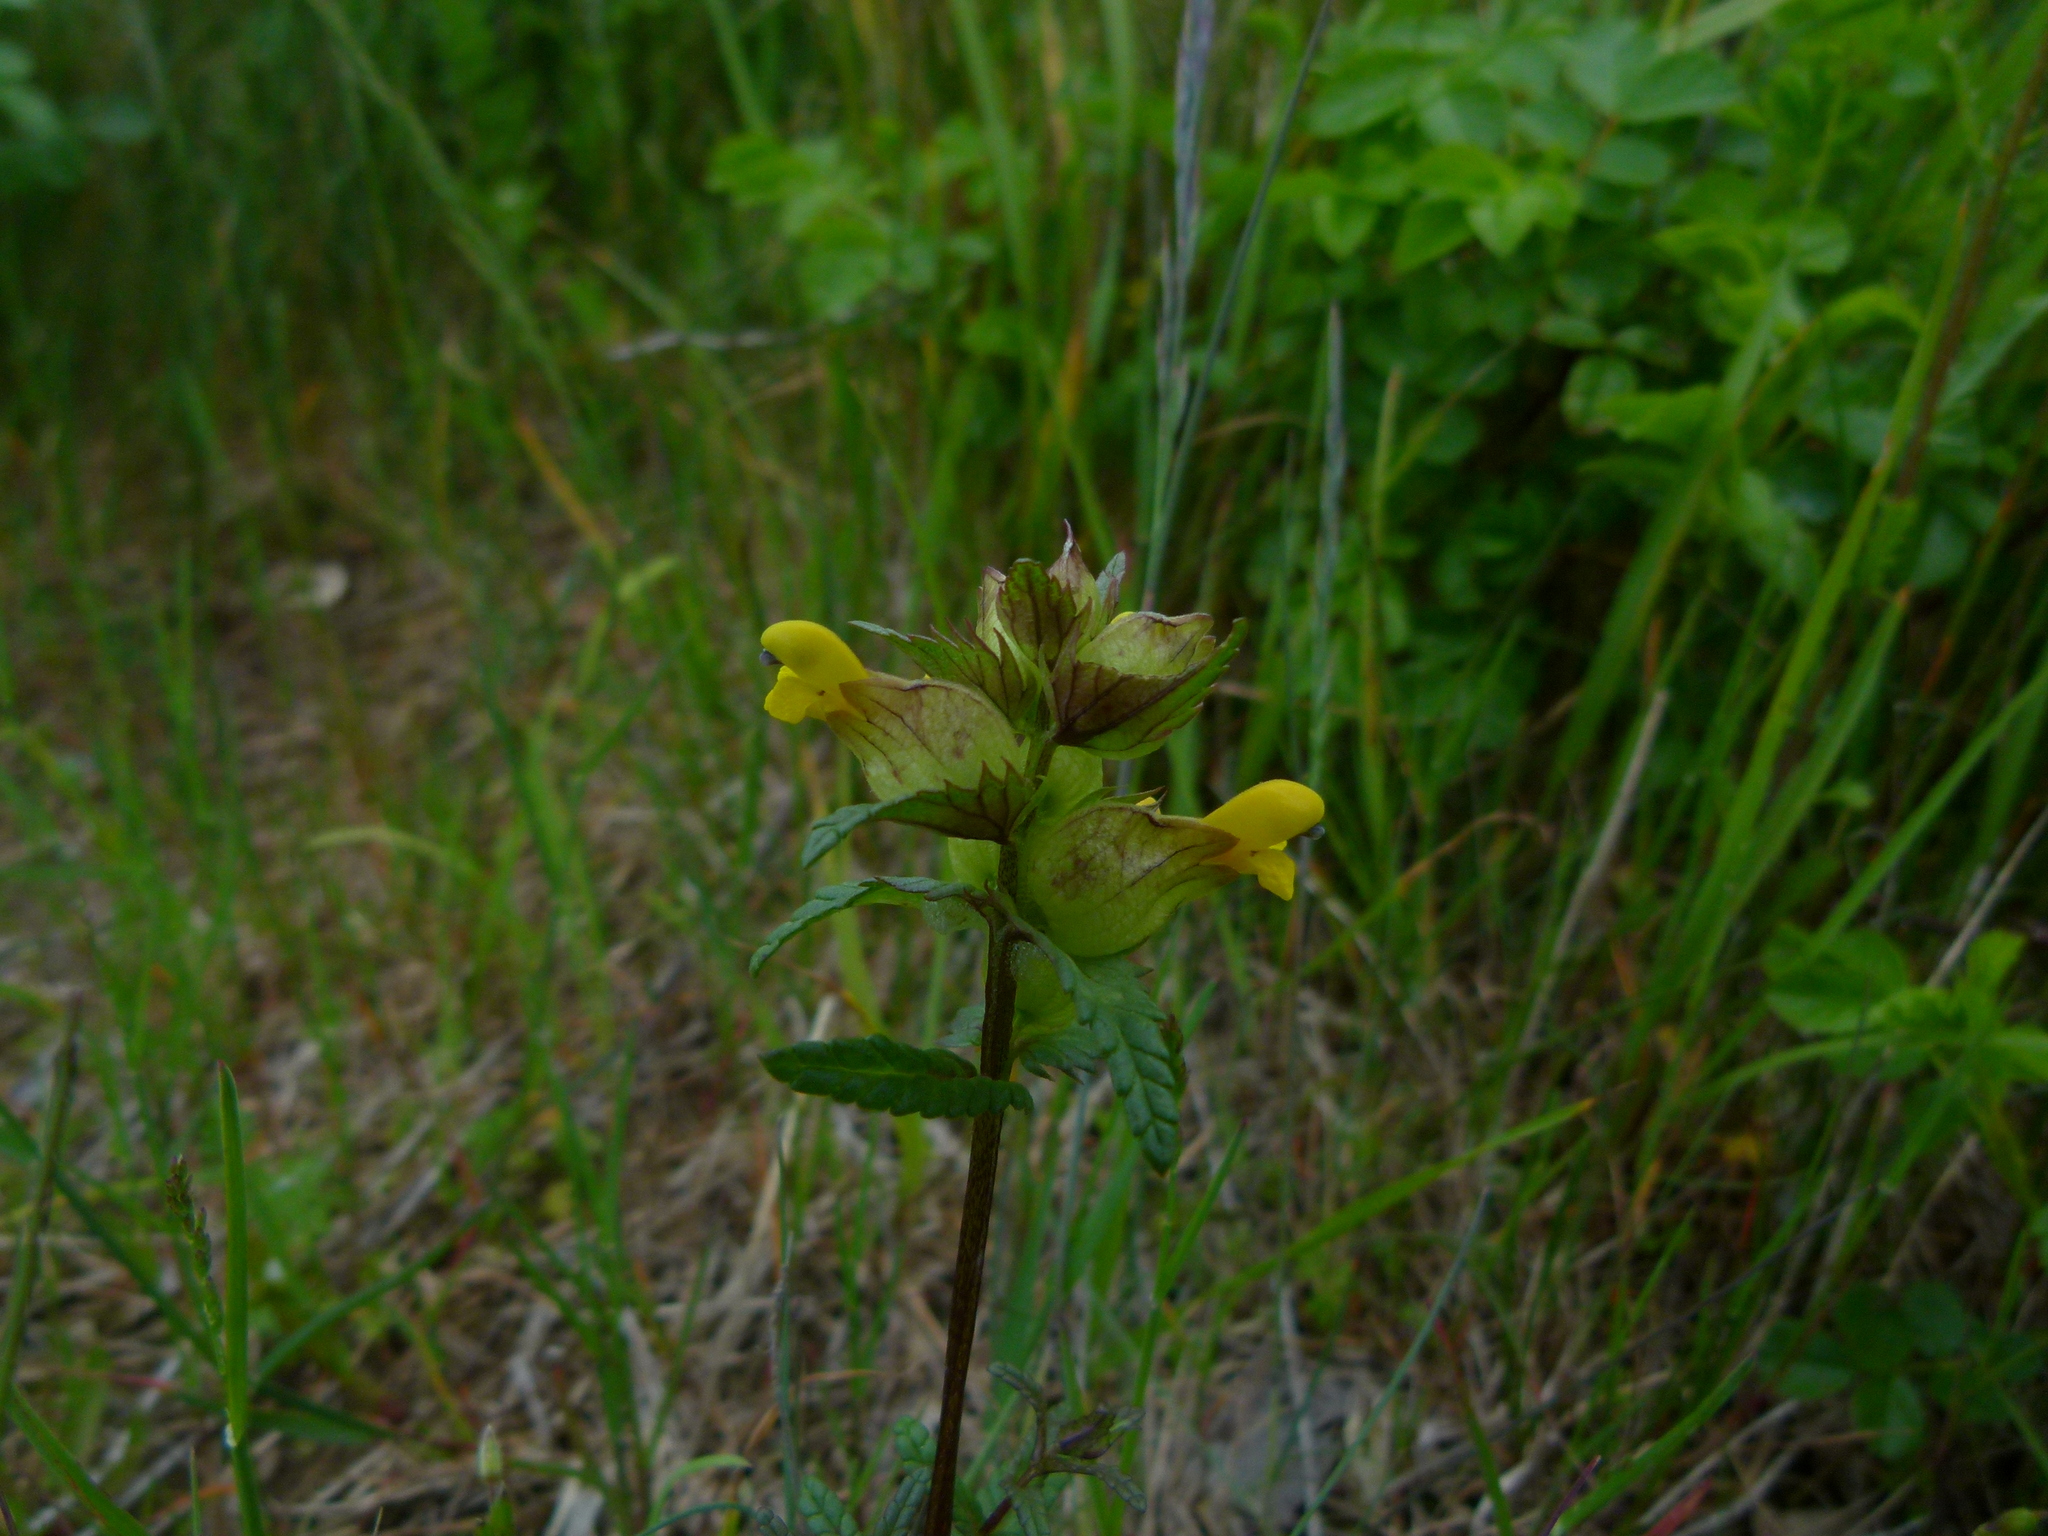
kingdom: Plantae
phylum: Tracheophyta
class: Magnoliopsida
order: Lamiales
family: Orobanchaceae
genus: Rhinanthus
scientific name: Rhinanthus minor
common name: Yellow-rattle
